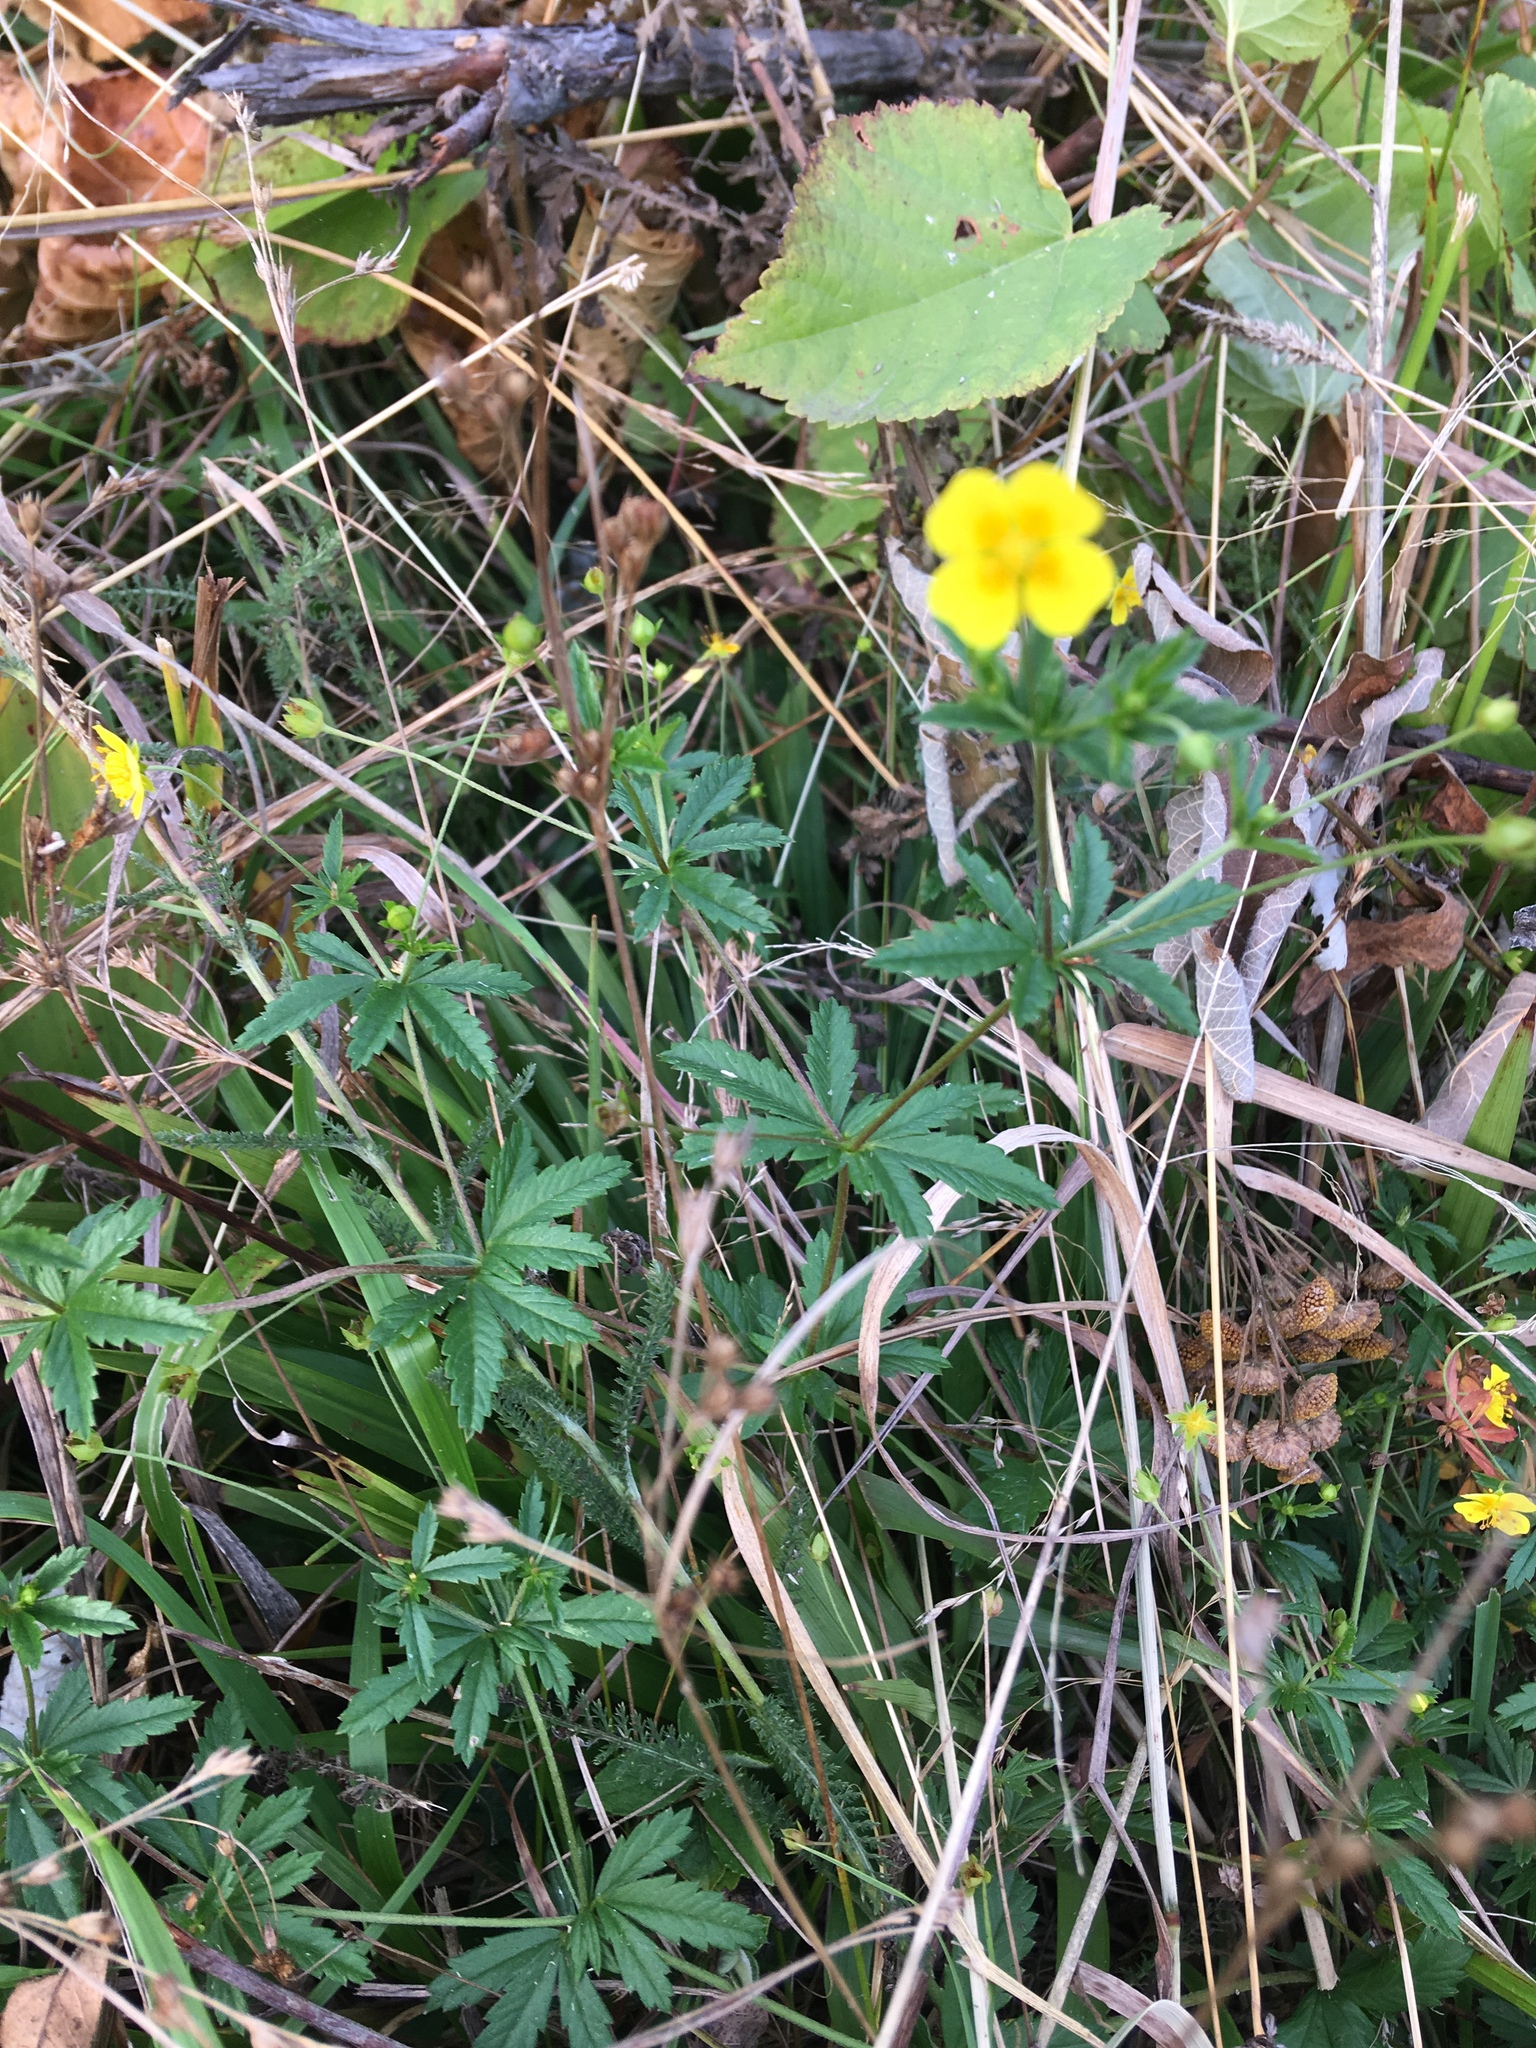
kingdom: Plantae
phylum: Tracheophyta
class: Magnoliopsida
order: Rosales
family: Rosaceae
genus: Potentilla
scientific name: Potentilla erecta
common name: Tormentil
